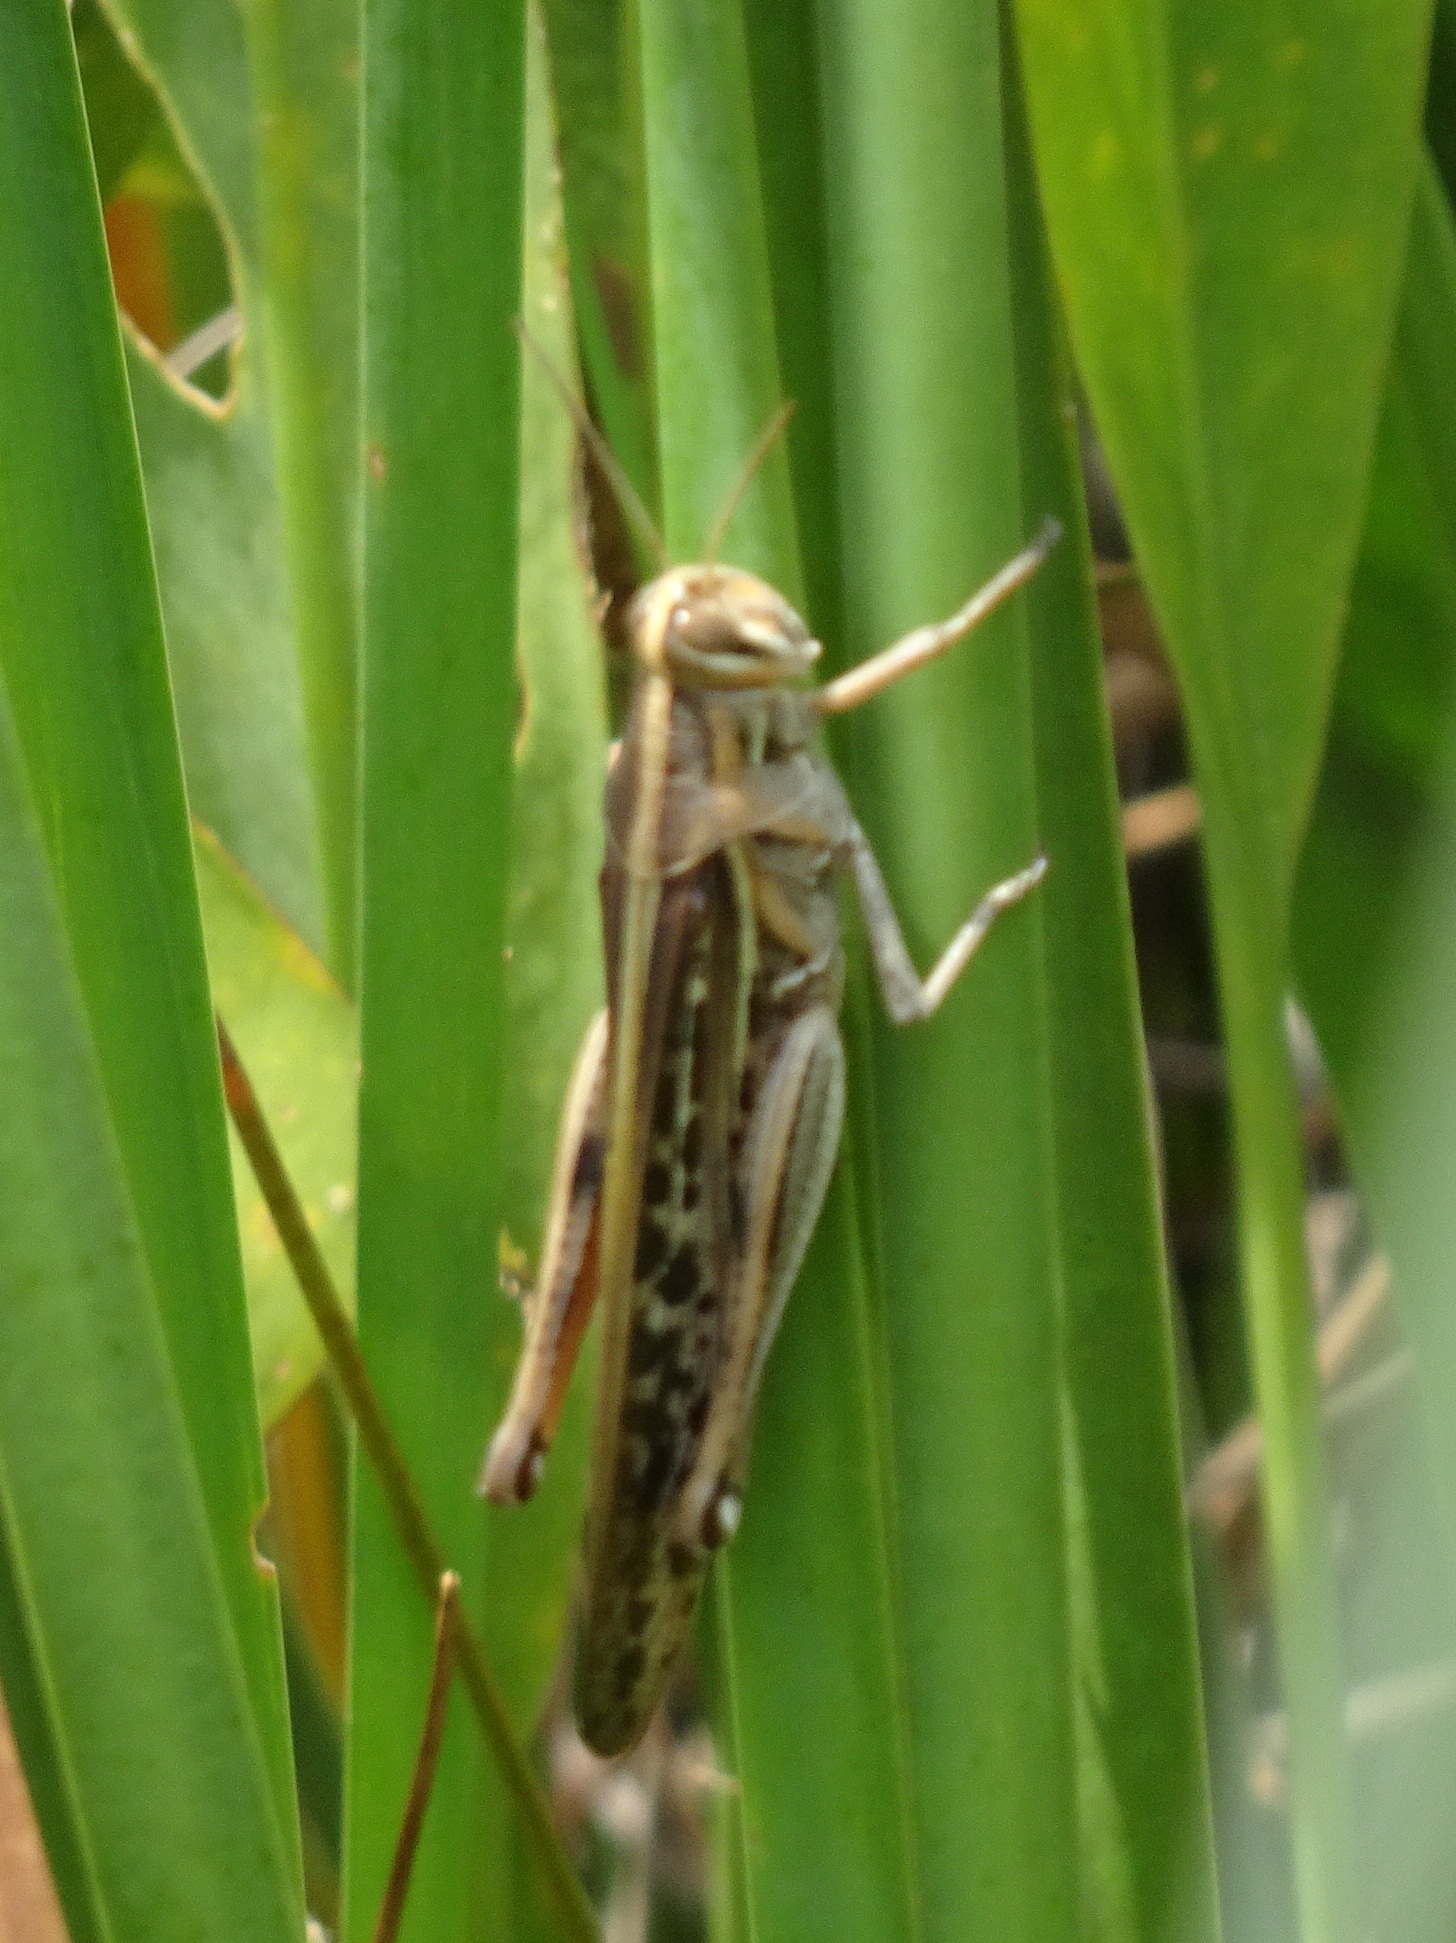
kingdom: Animalia
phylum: Arthropoda
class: Insecta
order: Orthoptera
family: Acrididae
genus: Schistocerca
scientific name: Schistocerca americana
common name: American bird locust
